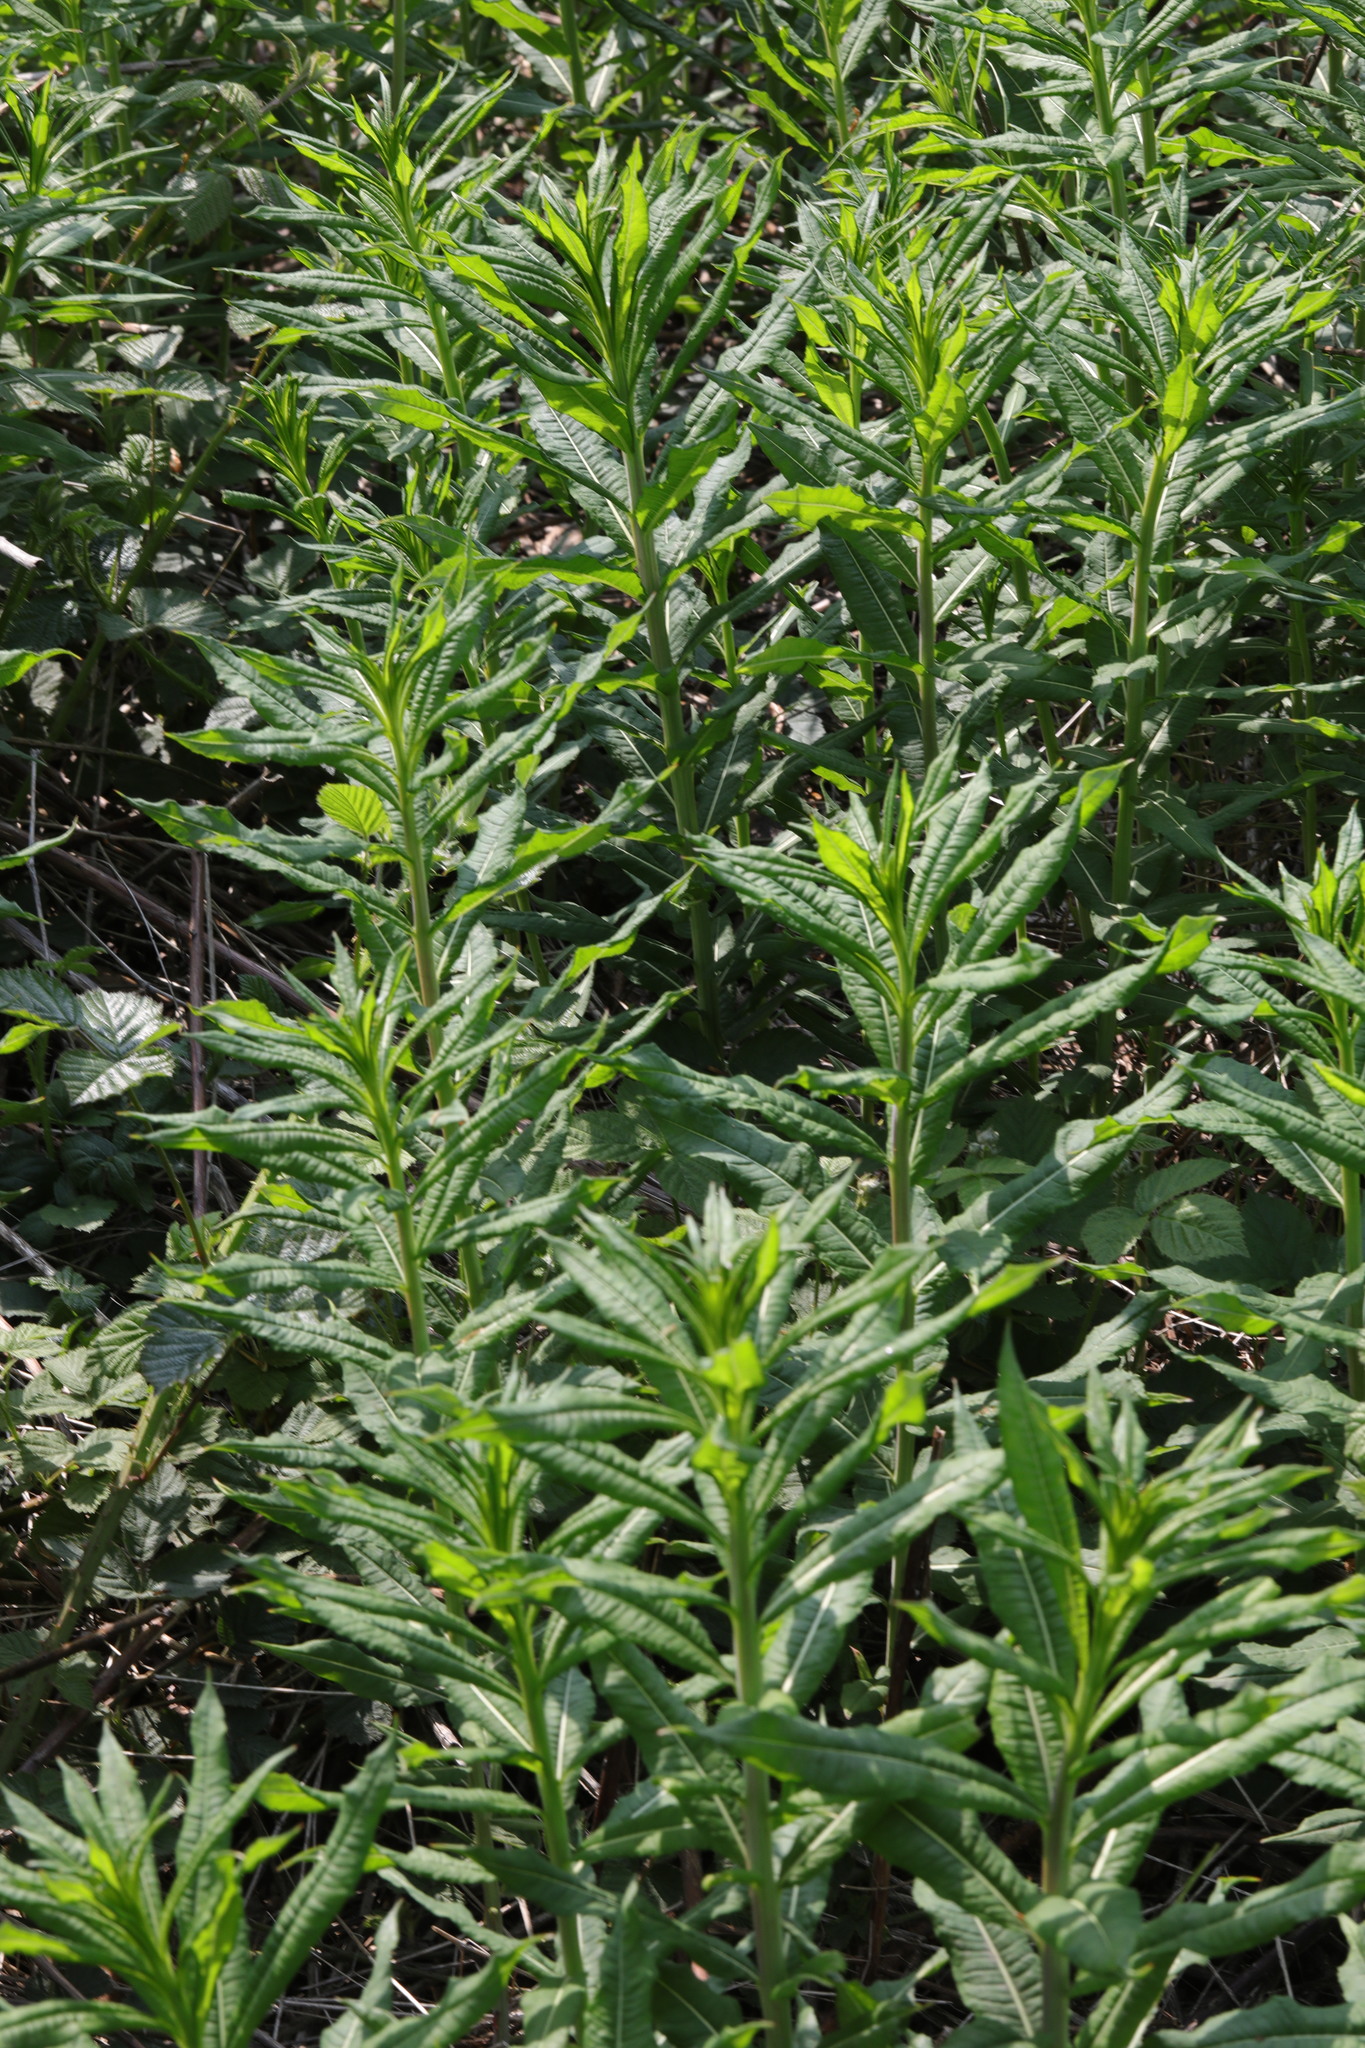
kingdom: Plantae
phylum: Tracheophyta
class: Magnoliopsida
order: Myrtales
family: Onagraceae
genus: Chamaenerion
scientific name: Chamaenerion angustifolium
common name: Fireweed
